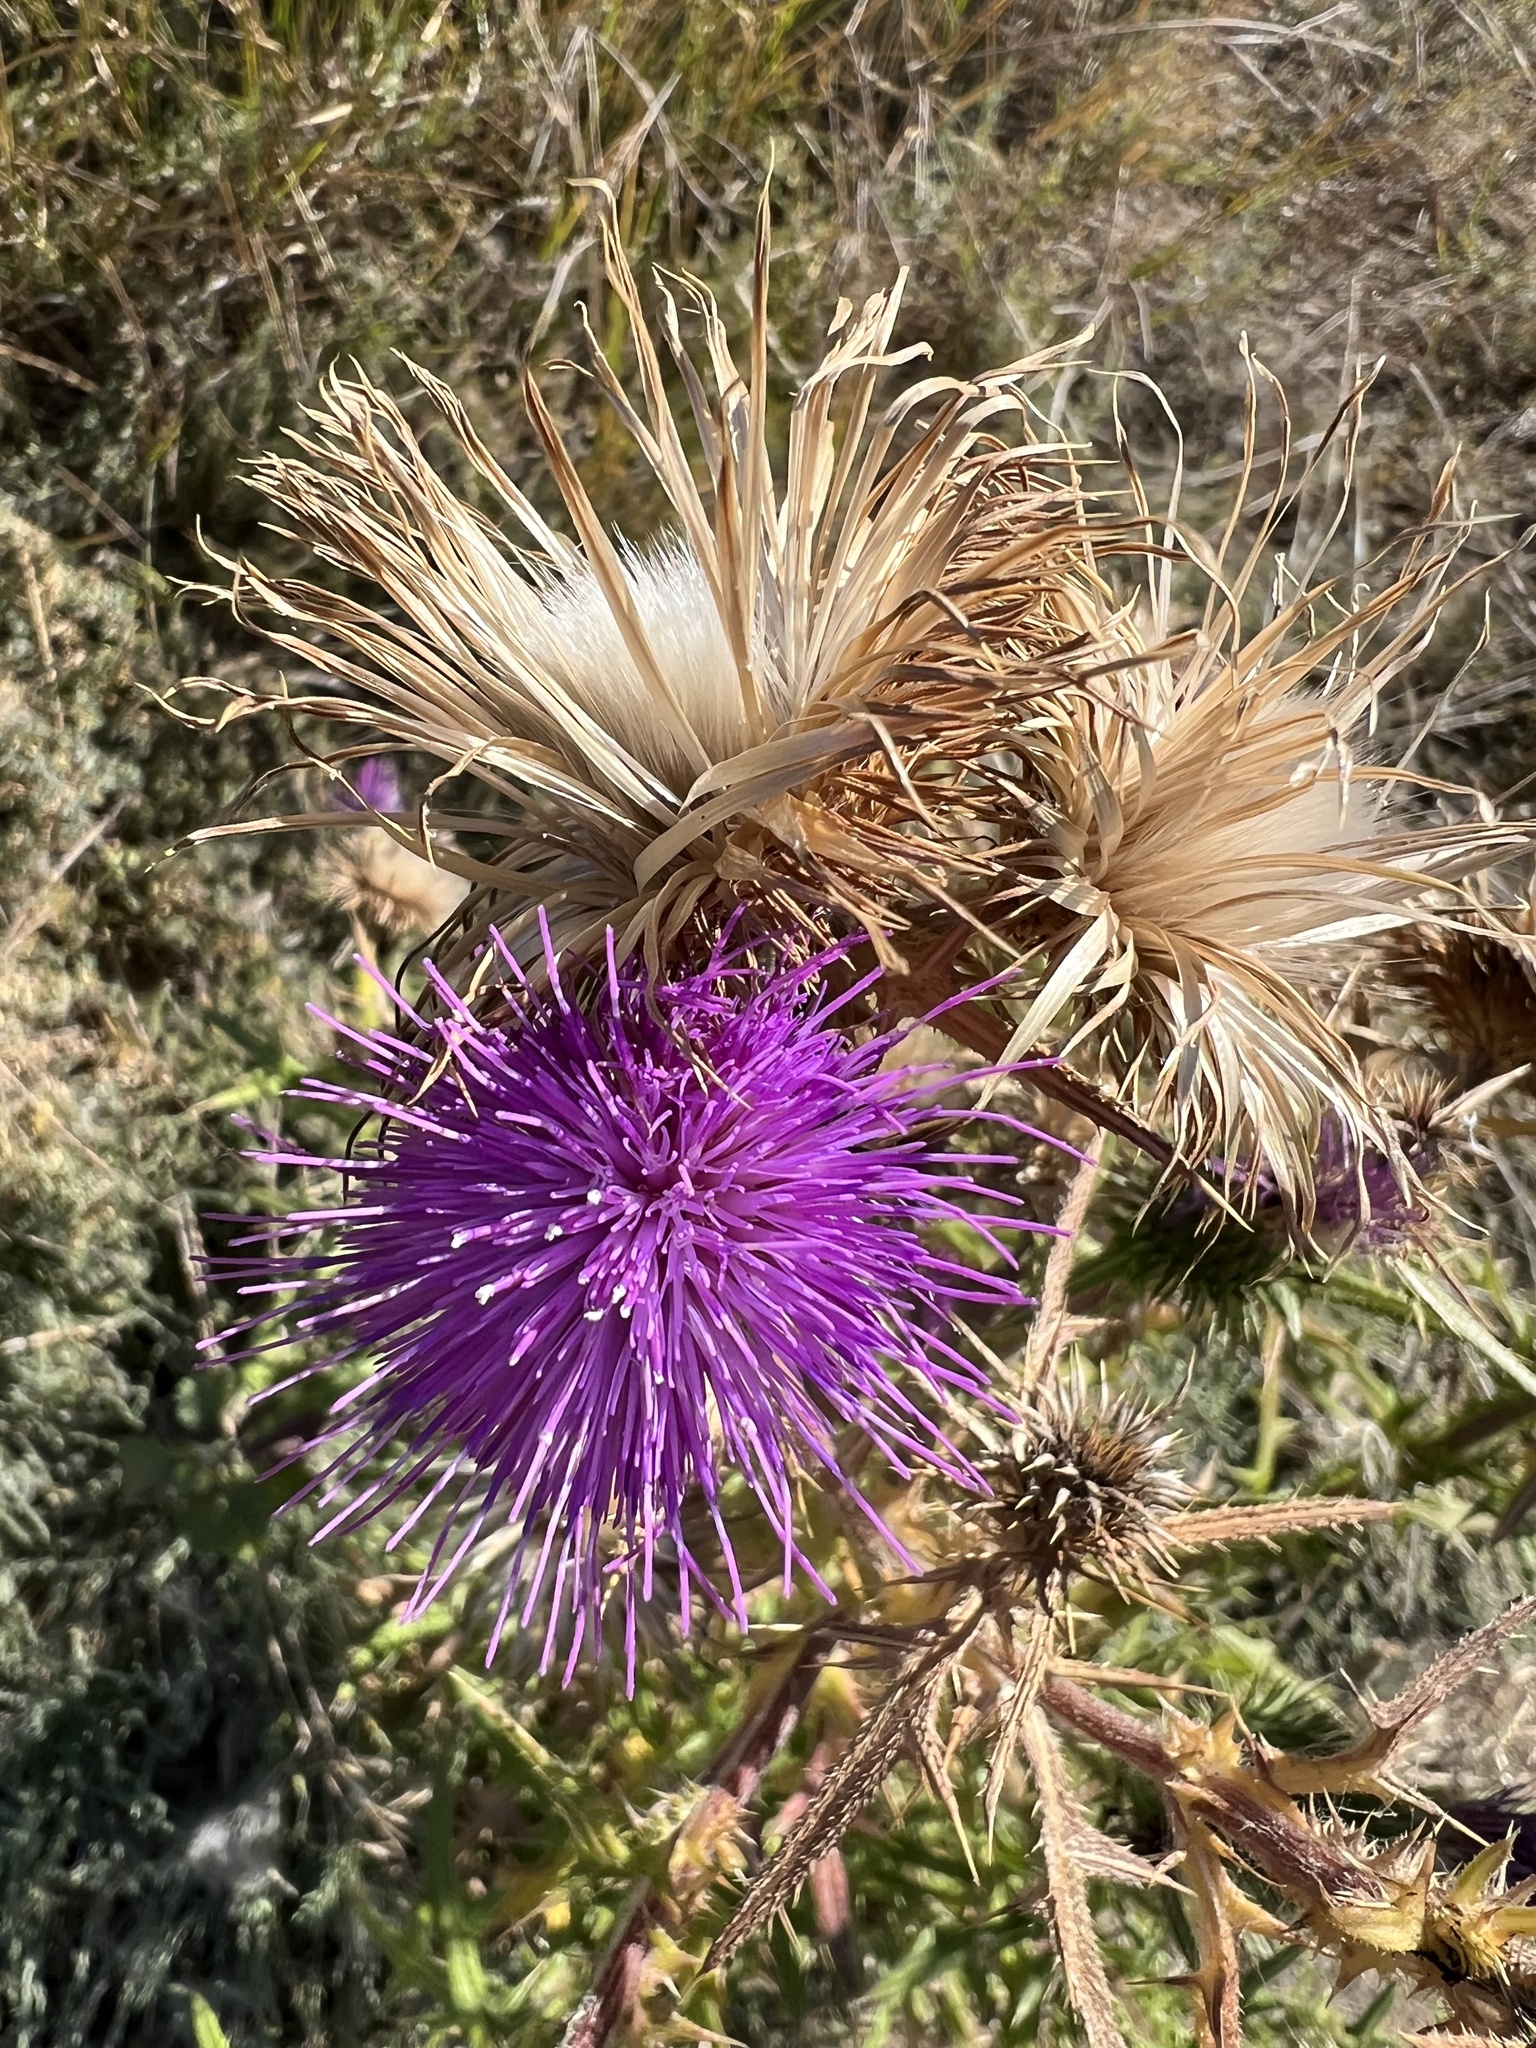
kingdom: Plantae
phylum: Tracheophyta
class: Magnoliopsida
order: Asterales
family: Asteraceae
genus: Cirsium
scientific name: Cirsium vulgare
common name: Bull thistle
